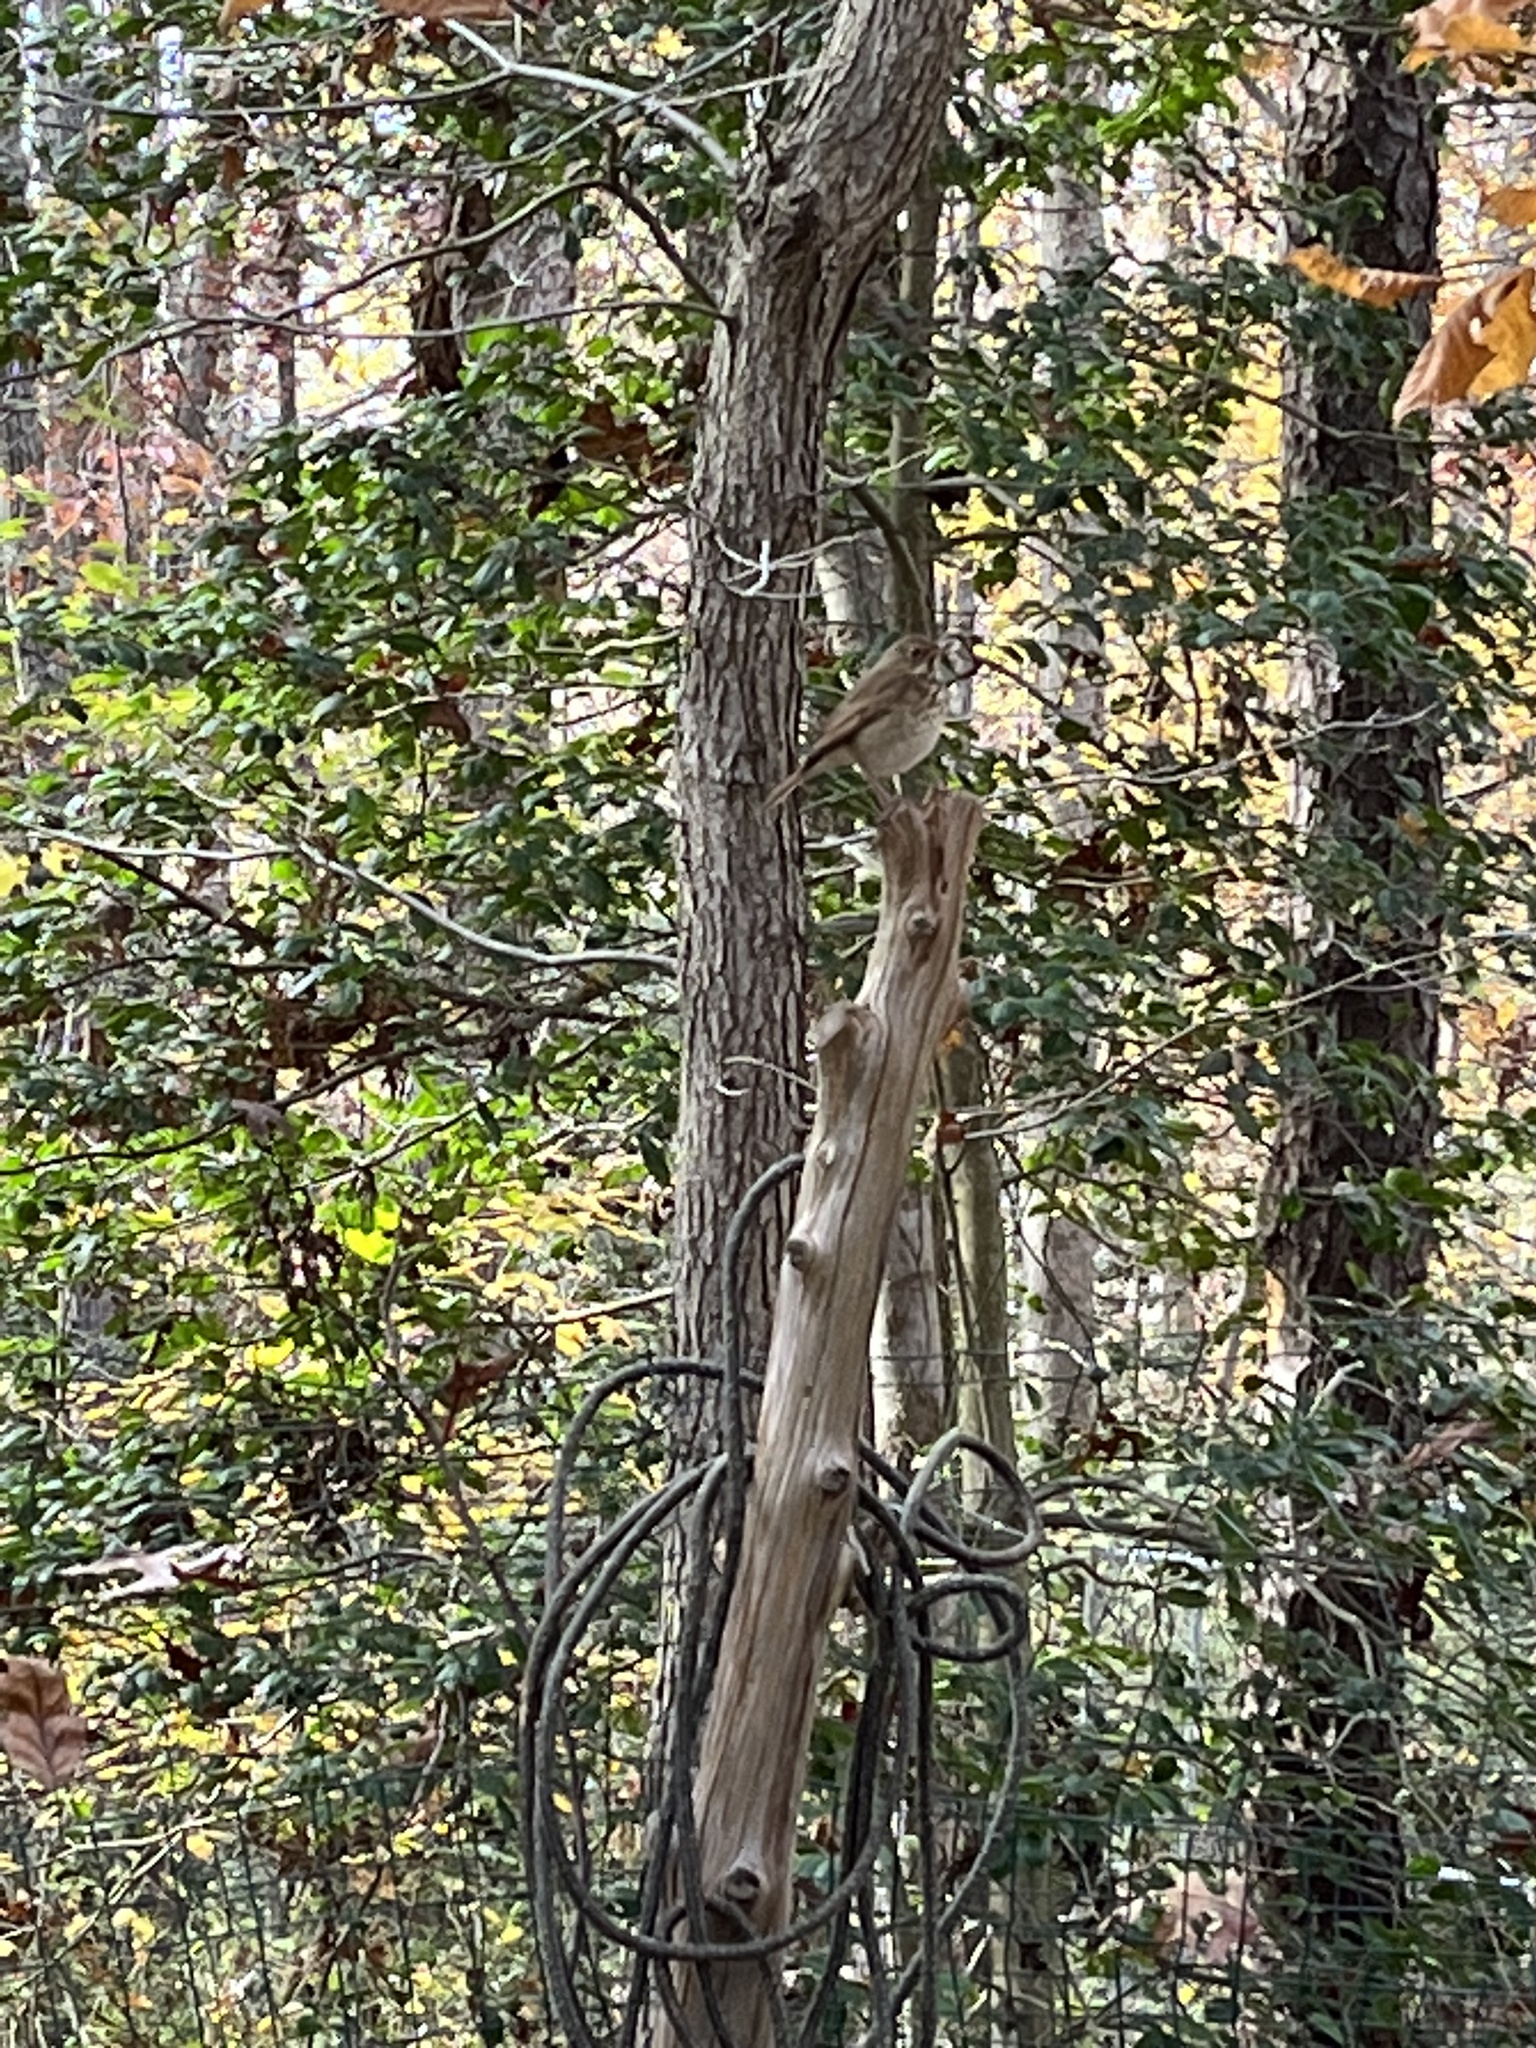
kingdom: Animalia
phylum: Chordata
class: Aves
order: Passeriformes
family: Turdidae
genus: Catharus
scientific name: Catharus guttatus
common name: Hermit thrush
